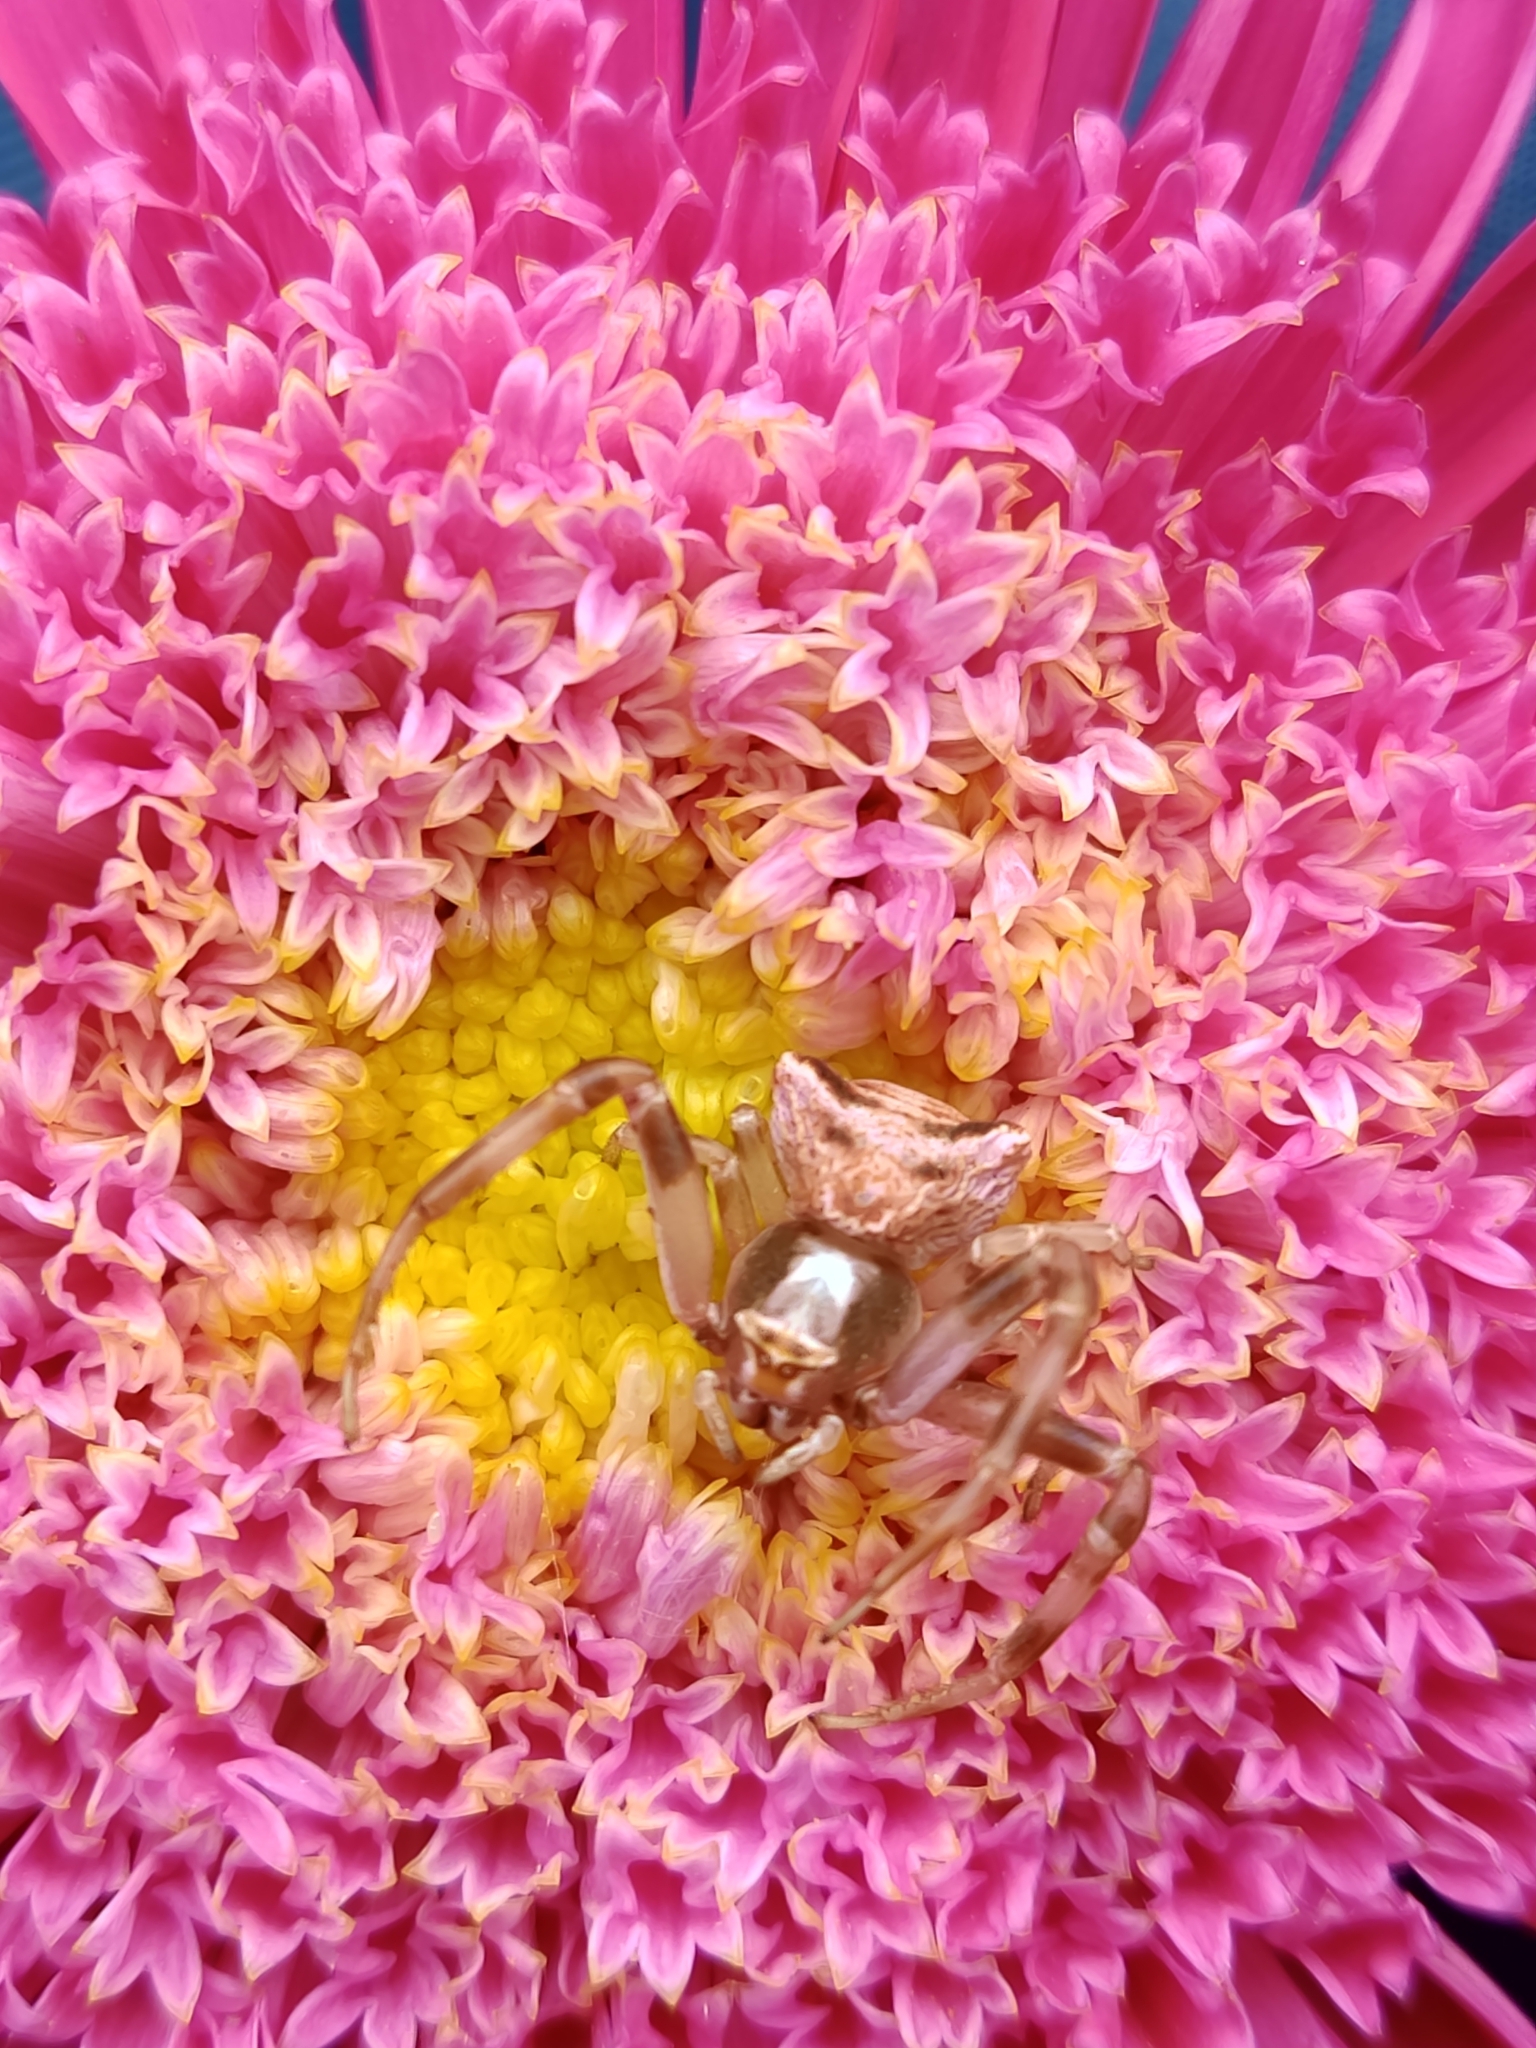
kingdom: Animalia
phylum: Arthropoda
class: Arachnida
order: Araneae
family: Thomisidae
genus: Thomisus
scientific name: Thomisus onustus
